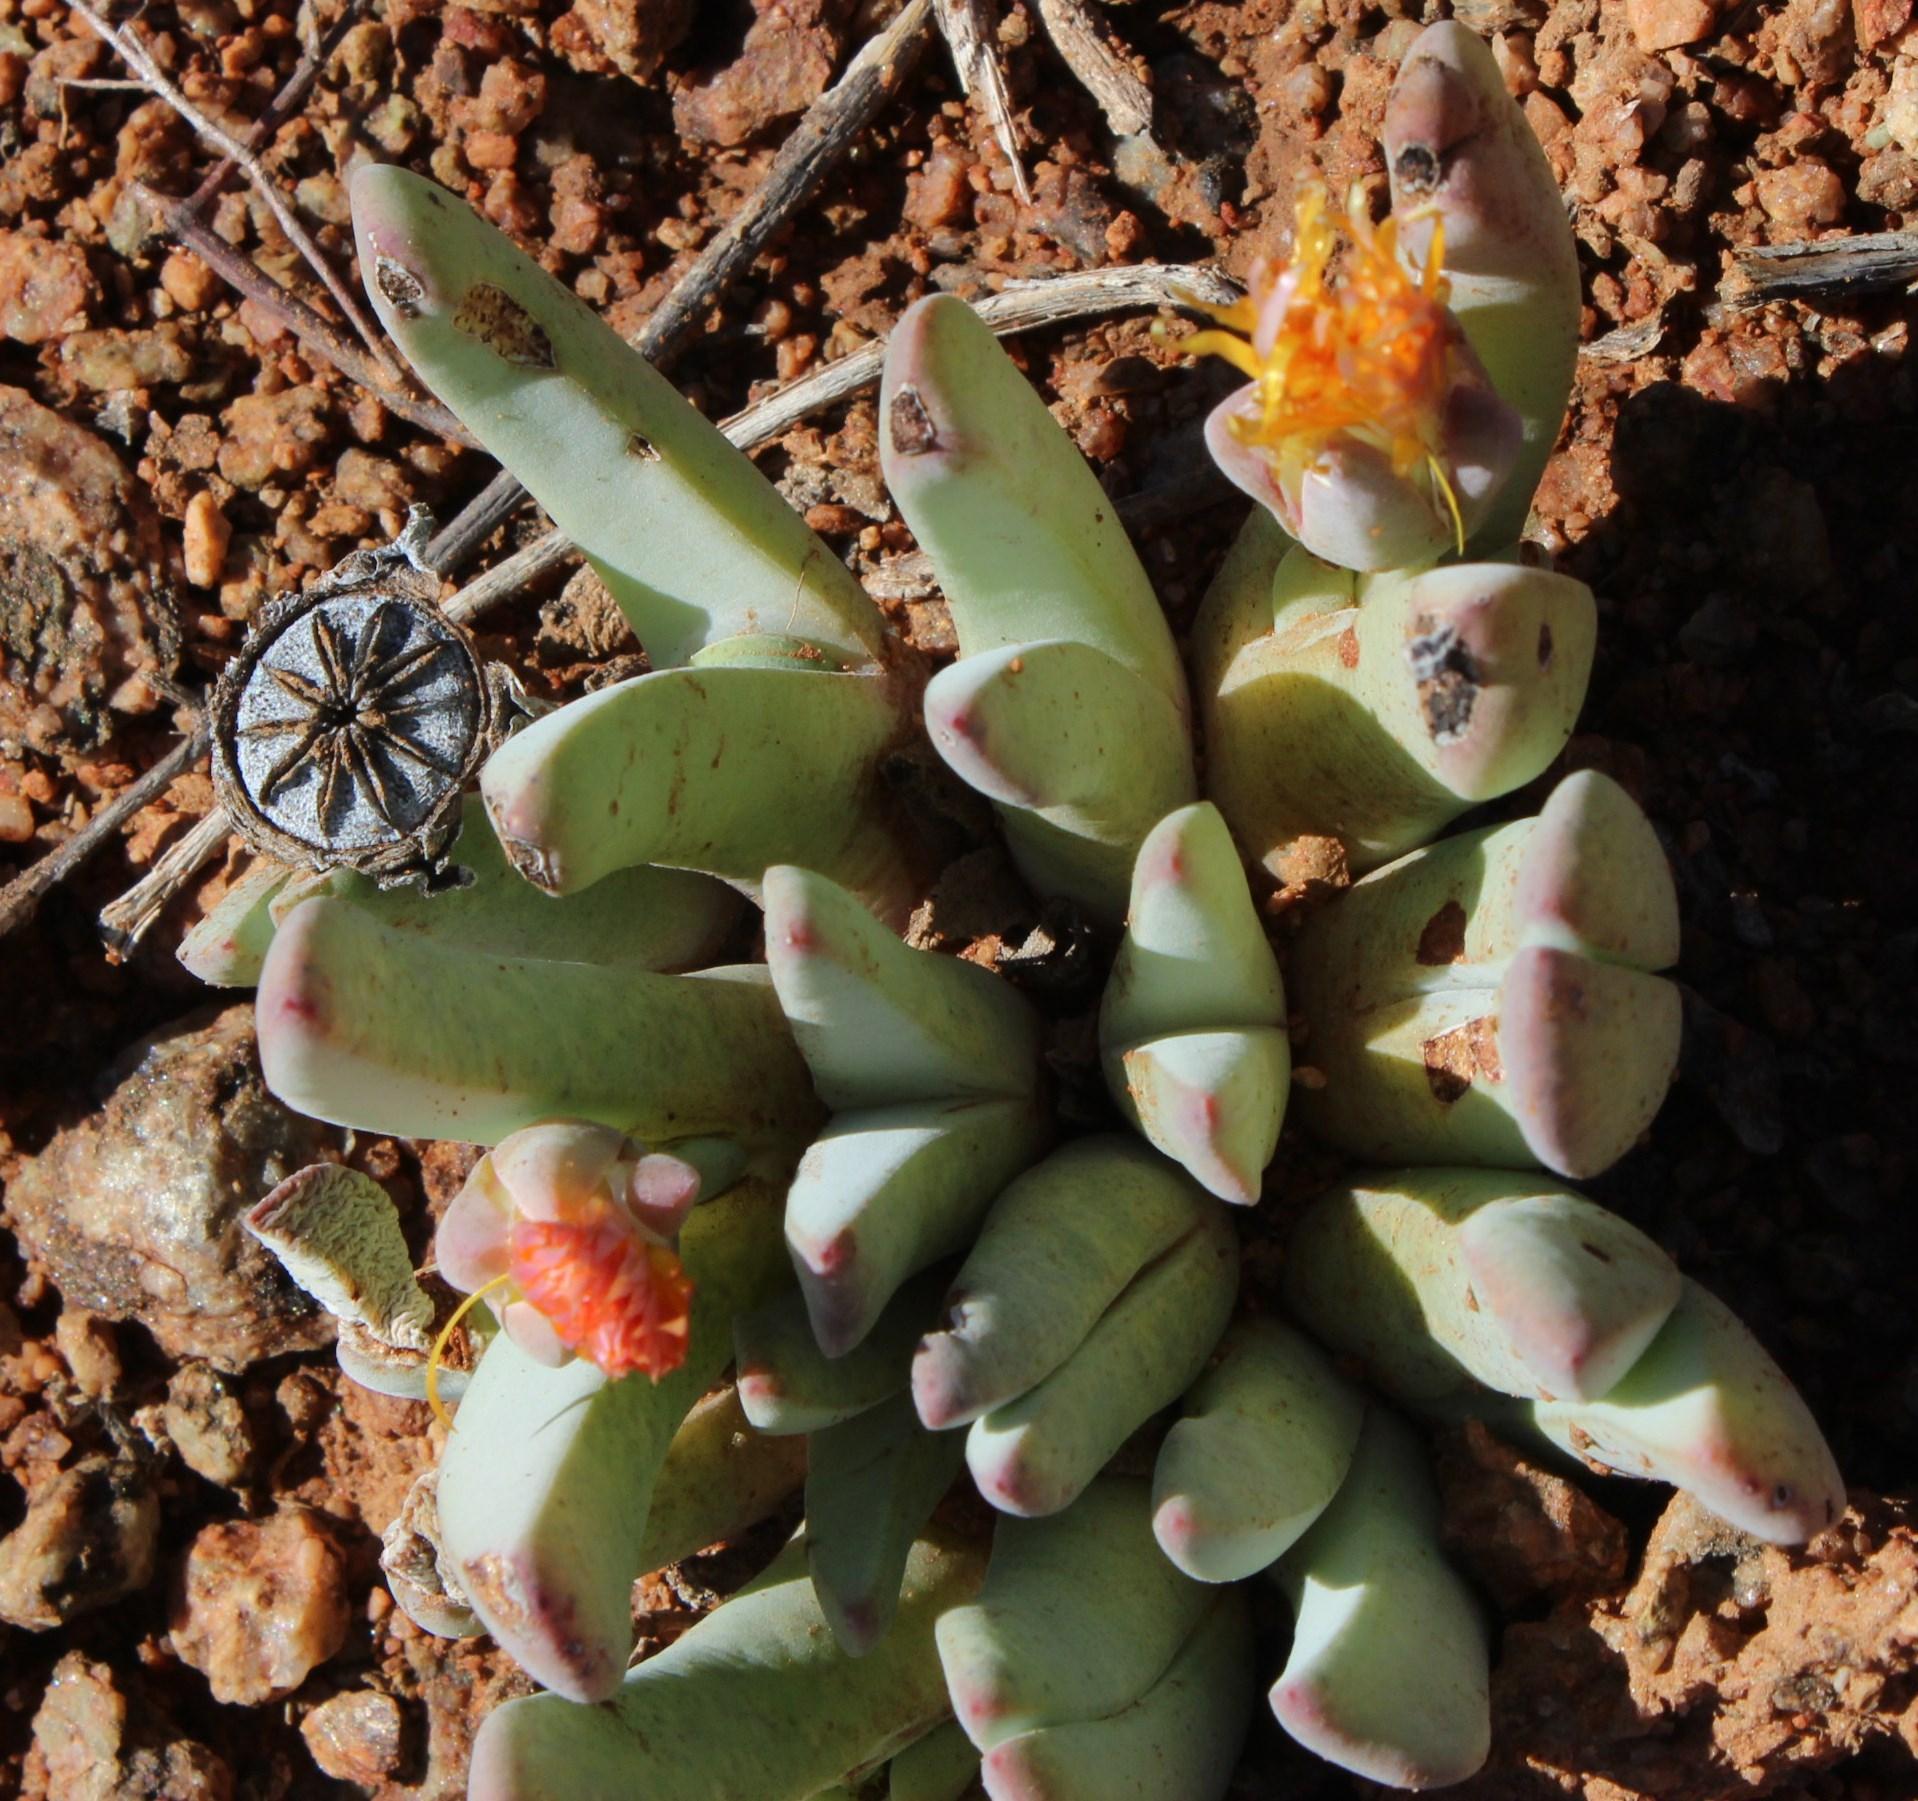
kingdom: Plantae
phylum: Tracheophyta
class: Magnoliopsida
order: Caryophyllales
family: Aizoaceae
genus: Cheiridopsis
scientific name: Cheiridopsis robusta
